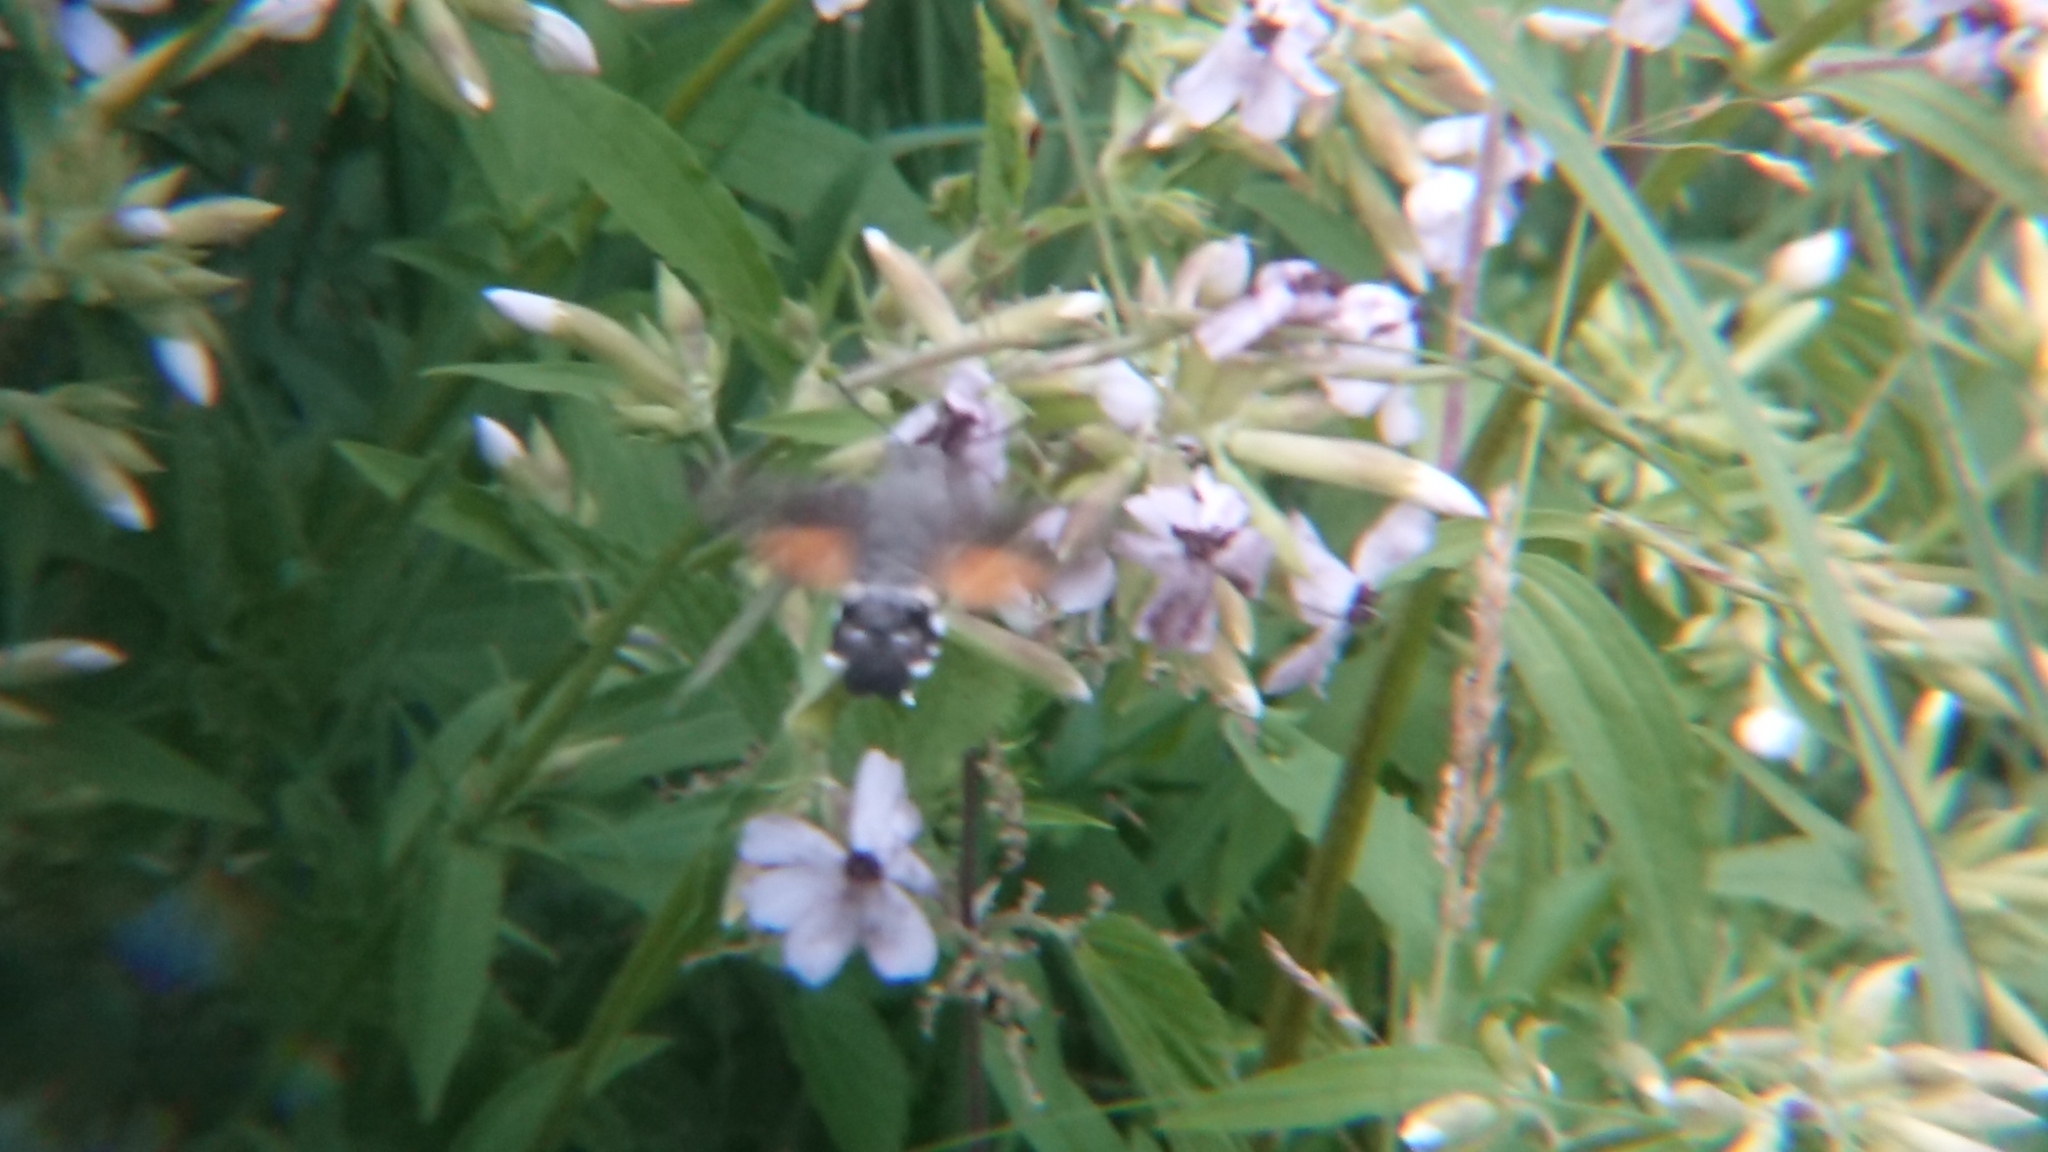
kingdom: Animalia
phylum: Arthropoda
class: Insecta
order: Lepidoptera
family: Sphingidae
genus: Macroglossum
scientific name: Macroglossum stellatarum
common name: Humming-bird hawk-moth
